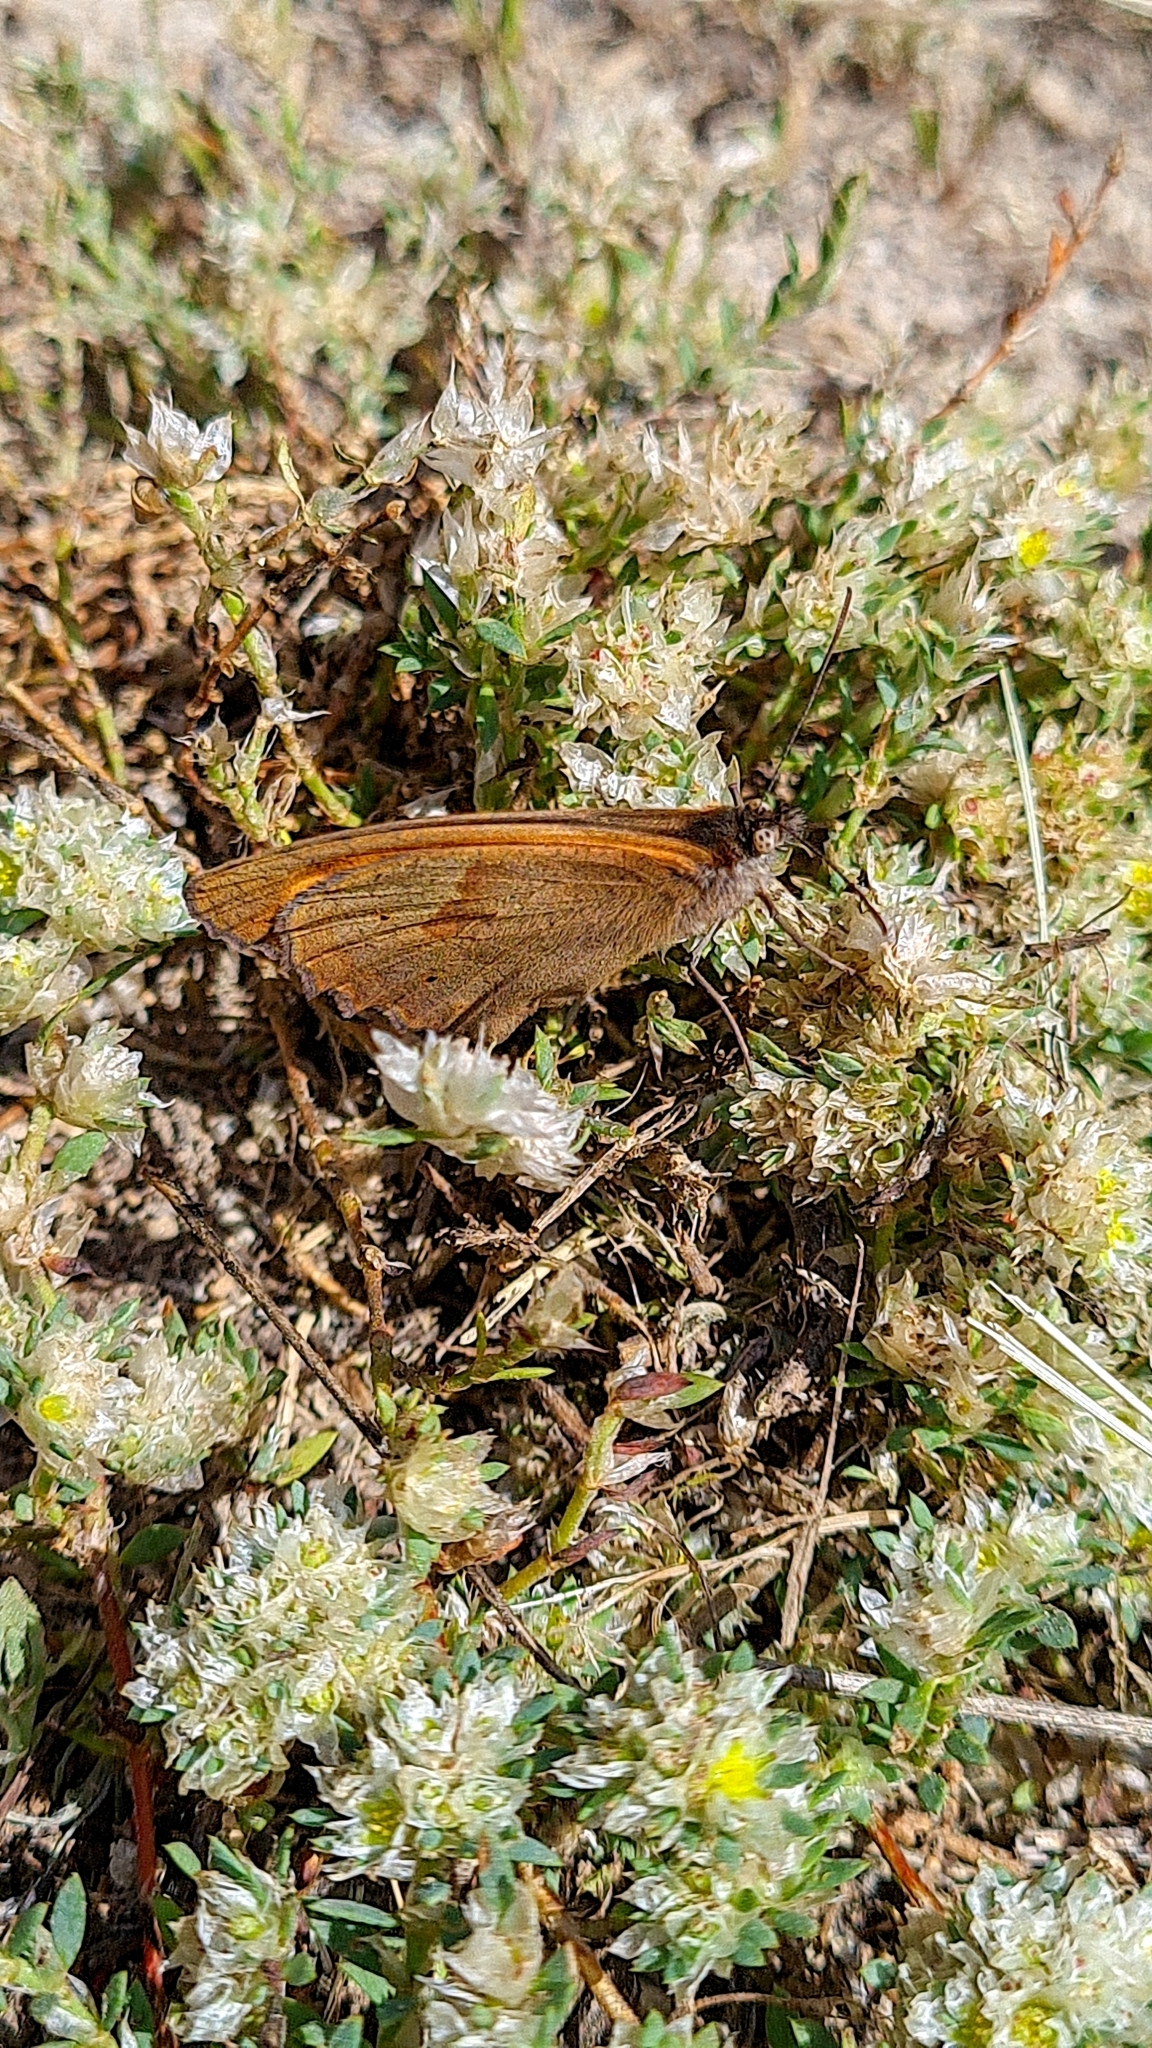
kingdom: Animalia
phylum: Arthropoda
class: Insecta
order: Lepidoptera
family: Nymphalidae
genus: Maniola
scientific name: Maniola jurtina
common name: Meadow brown
